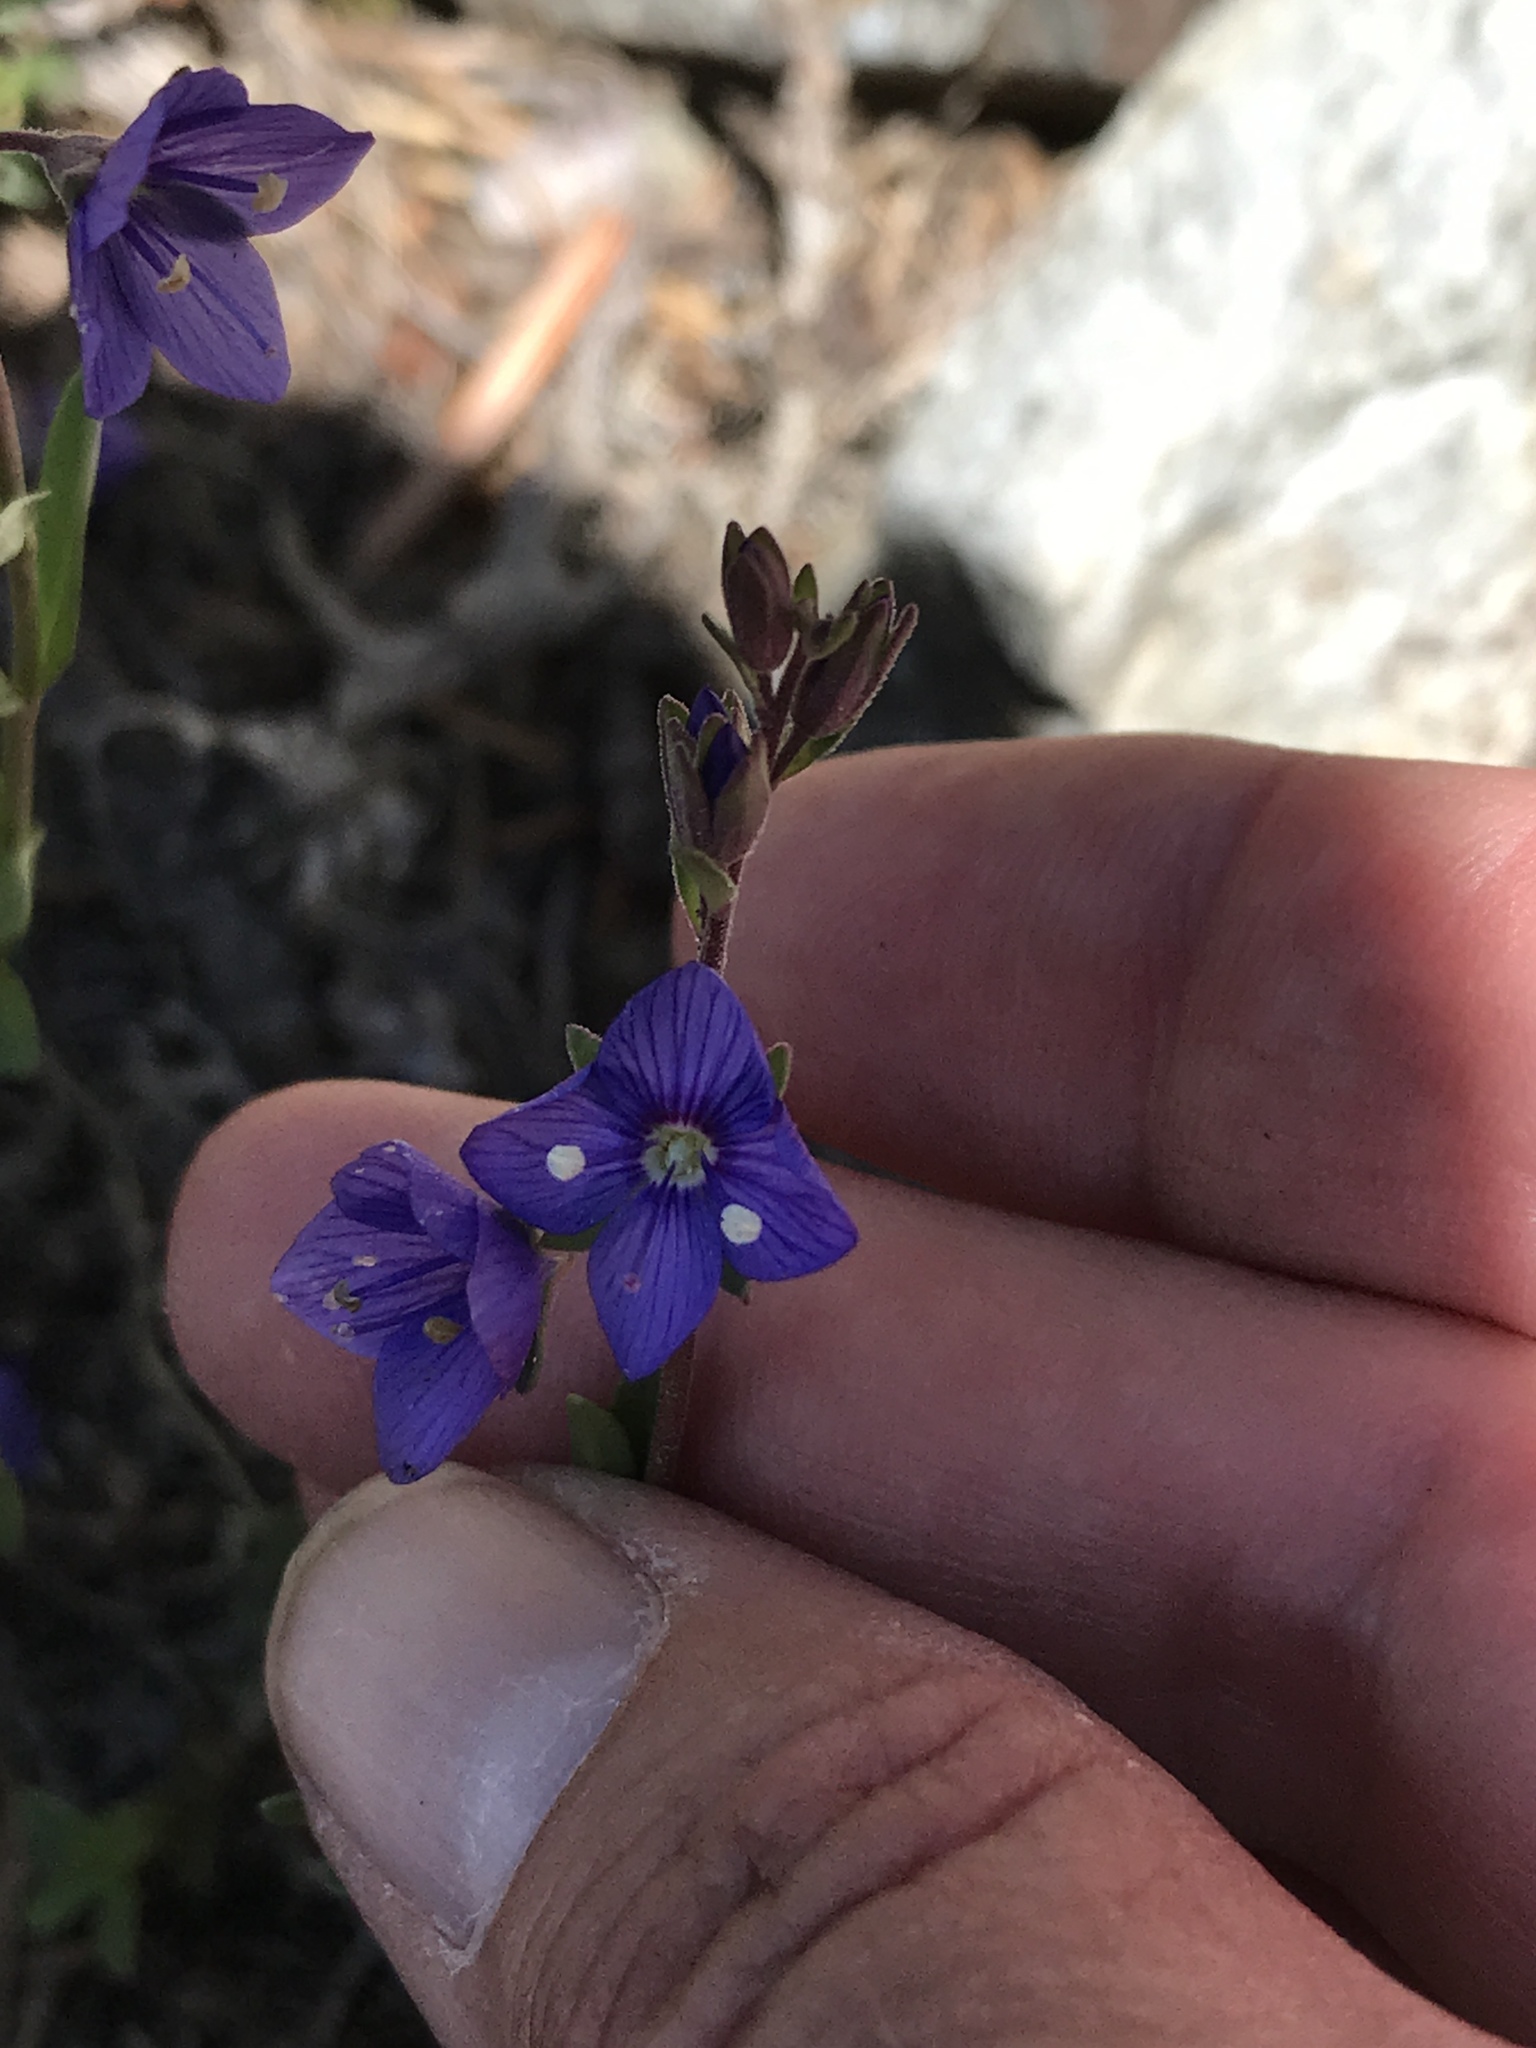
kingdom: Plantae
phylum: Tracheophyta
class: Magnoliopsida
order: Lamiales
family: Plantaginaceae
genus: Veronica
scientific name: Veronica fruticans
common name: Rock speedwell
